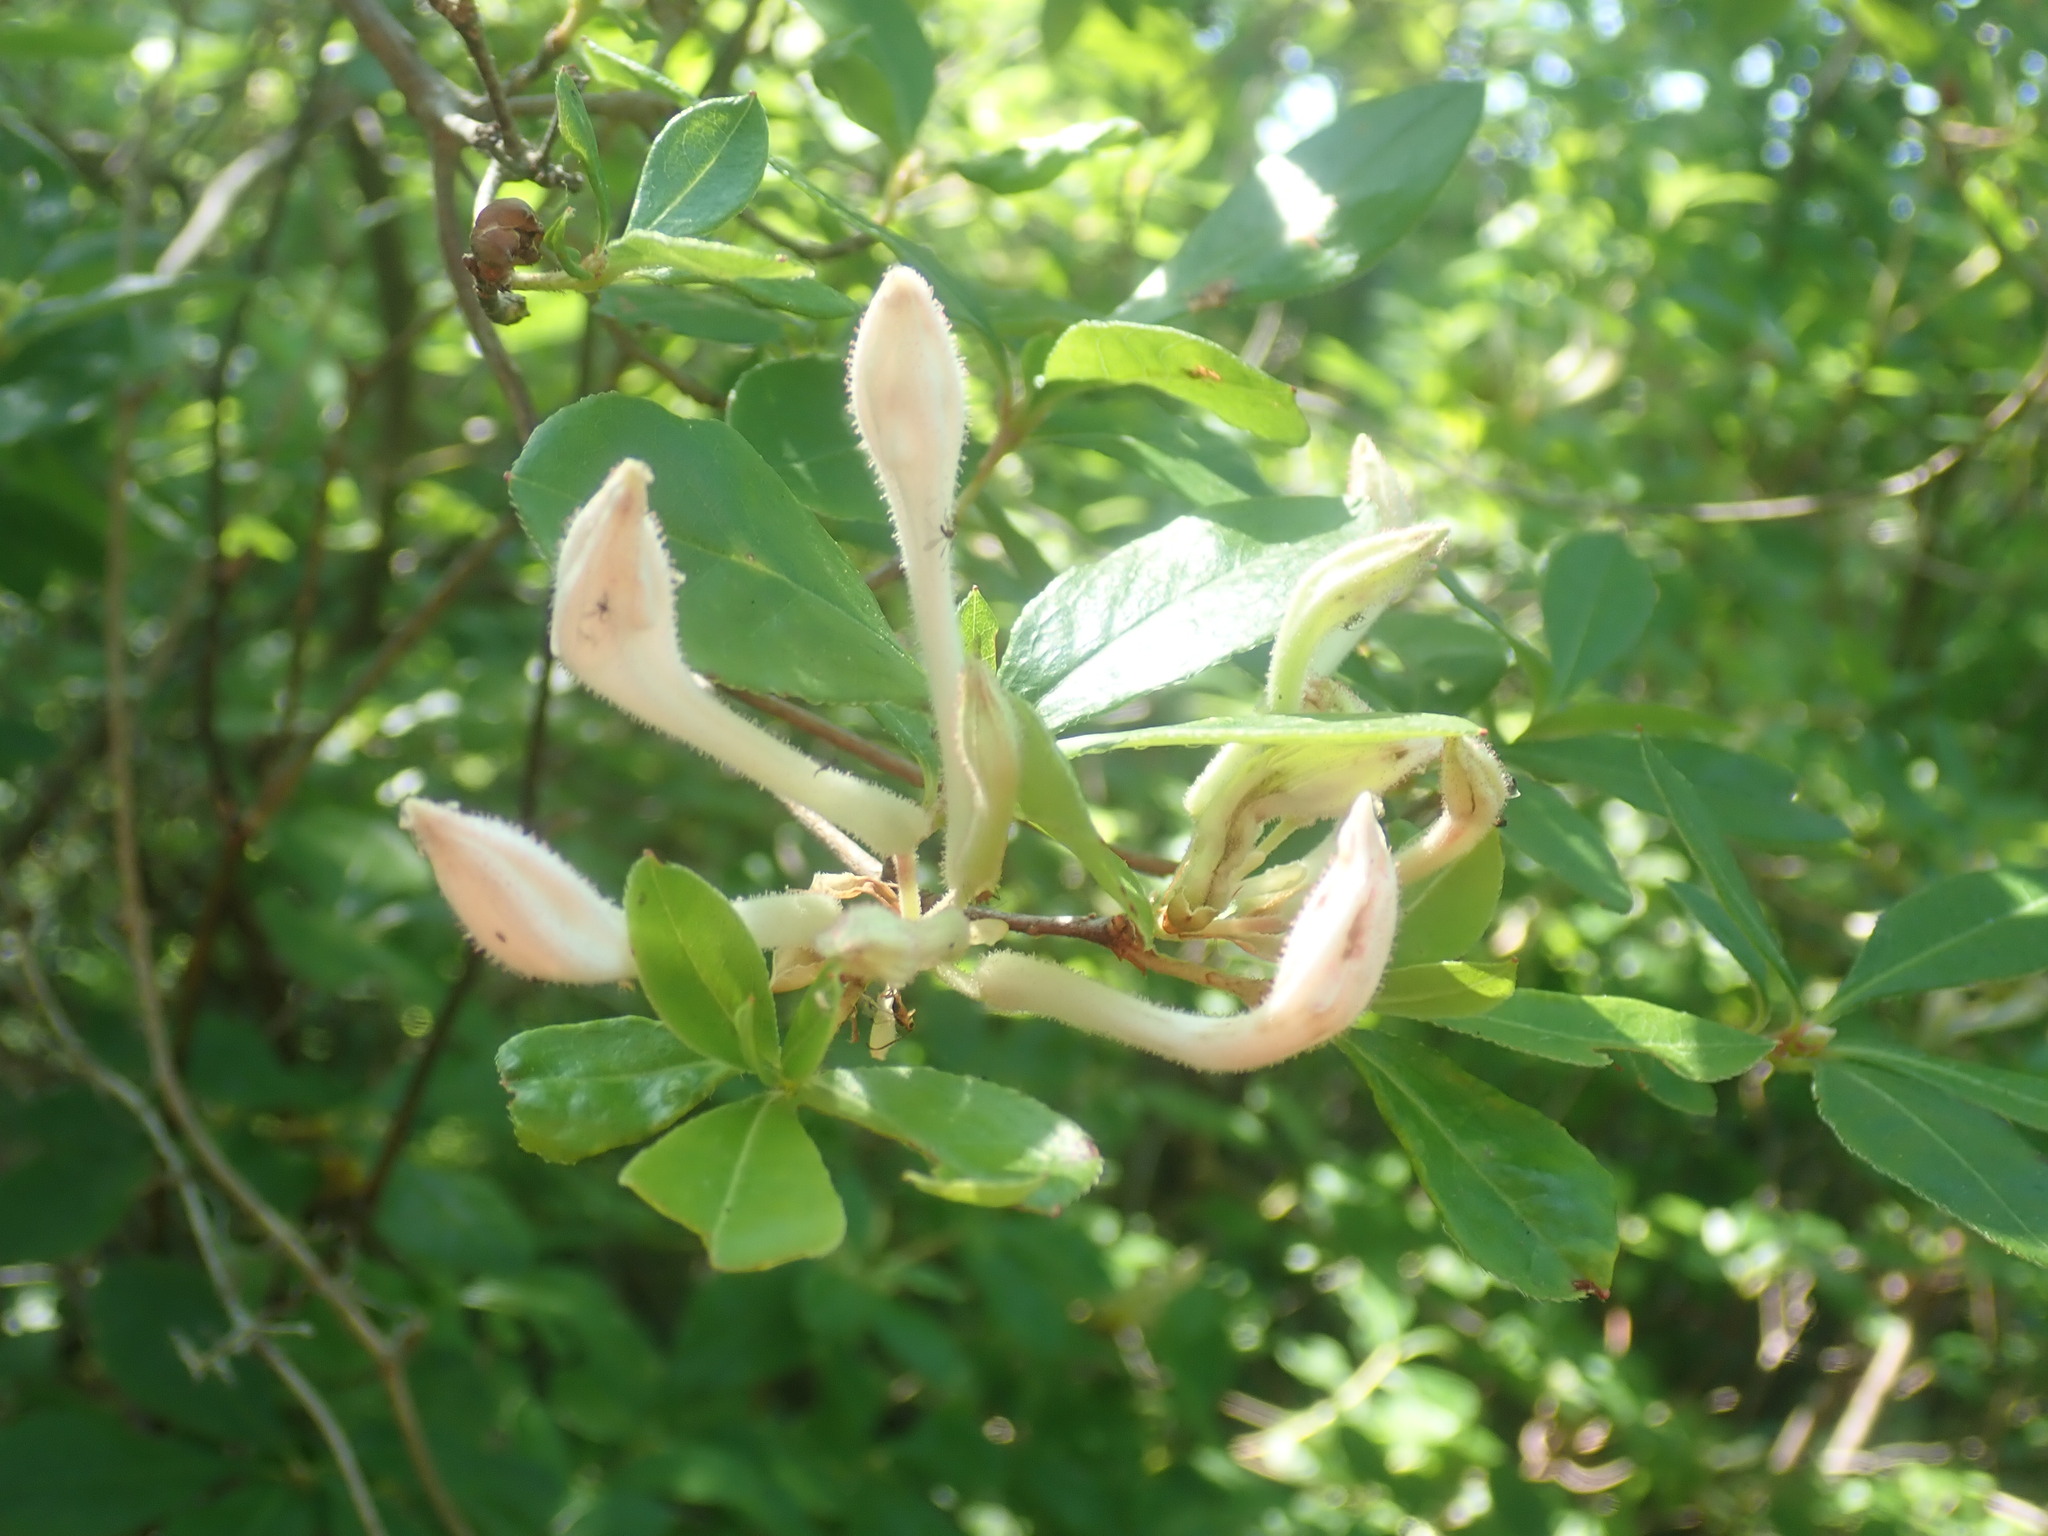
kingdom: Plantae
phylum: Tracheophyta
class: Magnoliopsida
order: Ericales
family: Ericaceae
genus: Rhododendron
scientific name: Rhododendron viscosum
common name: Clammy azalea
